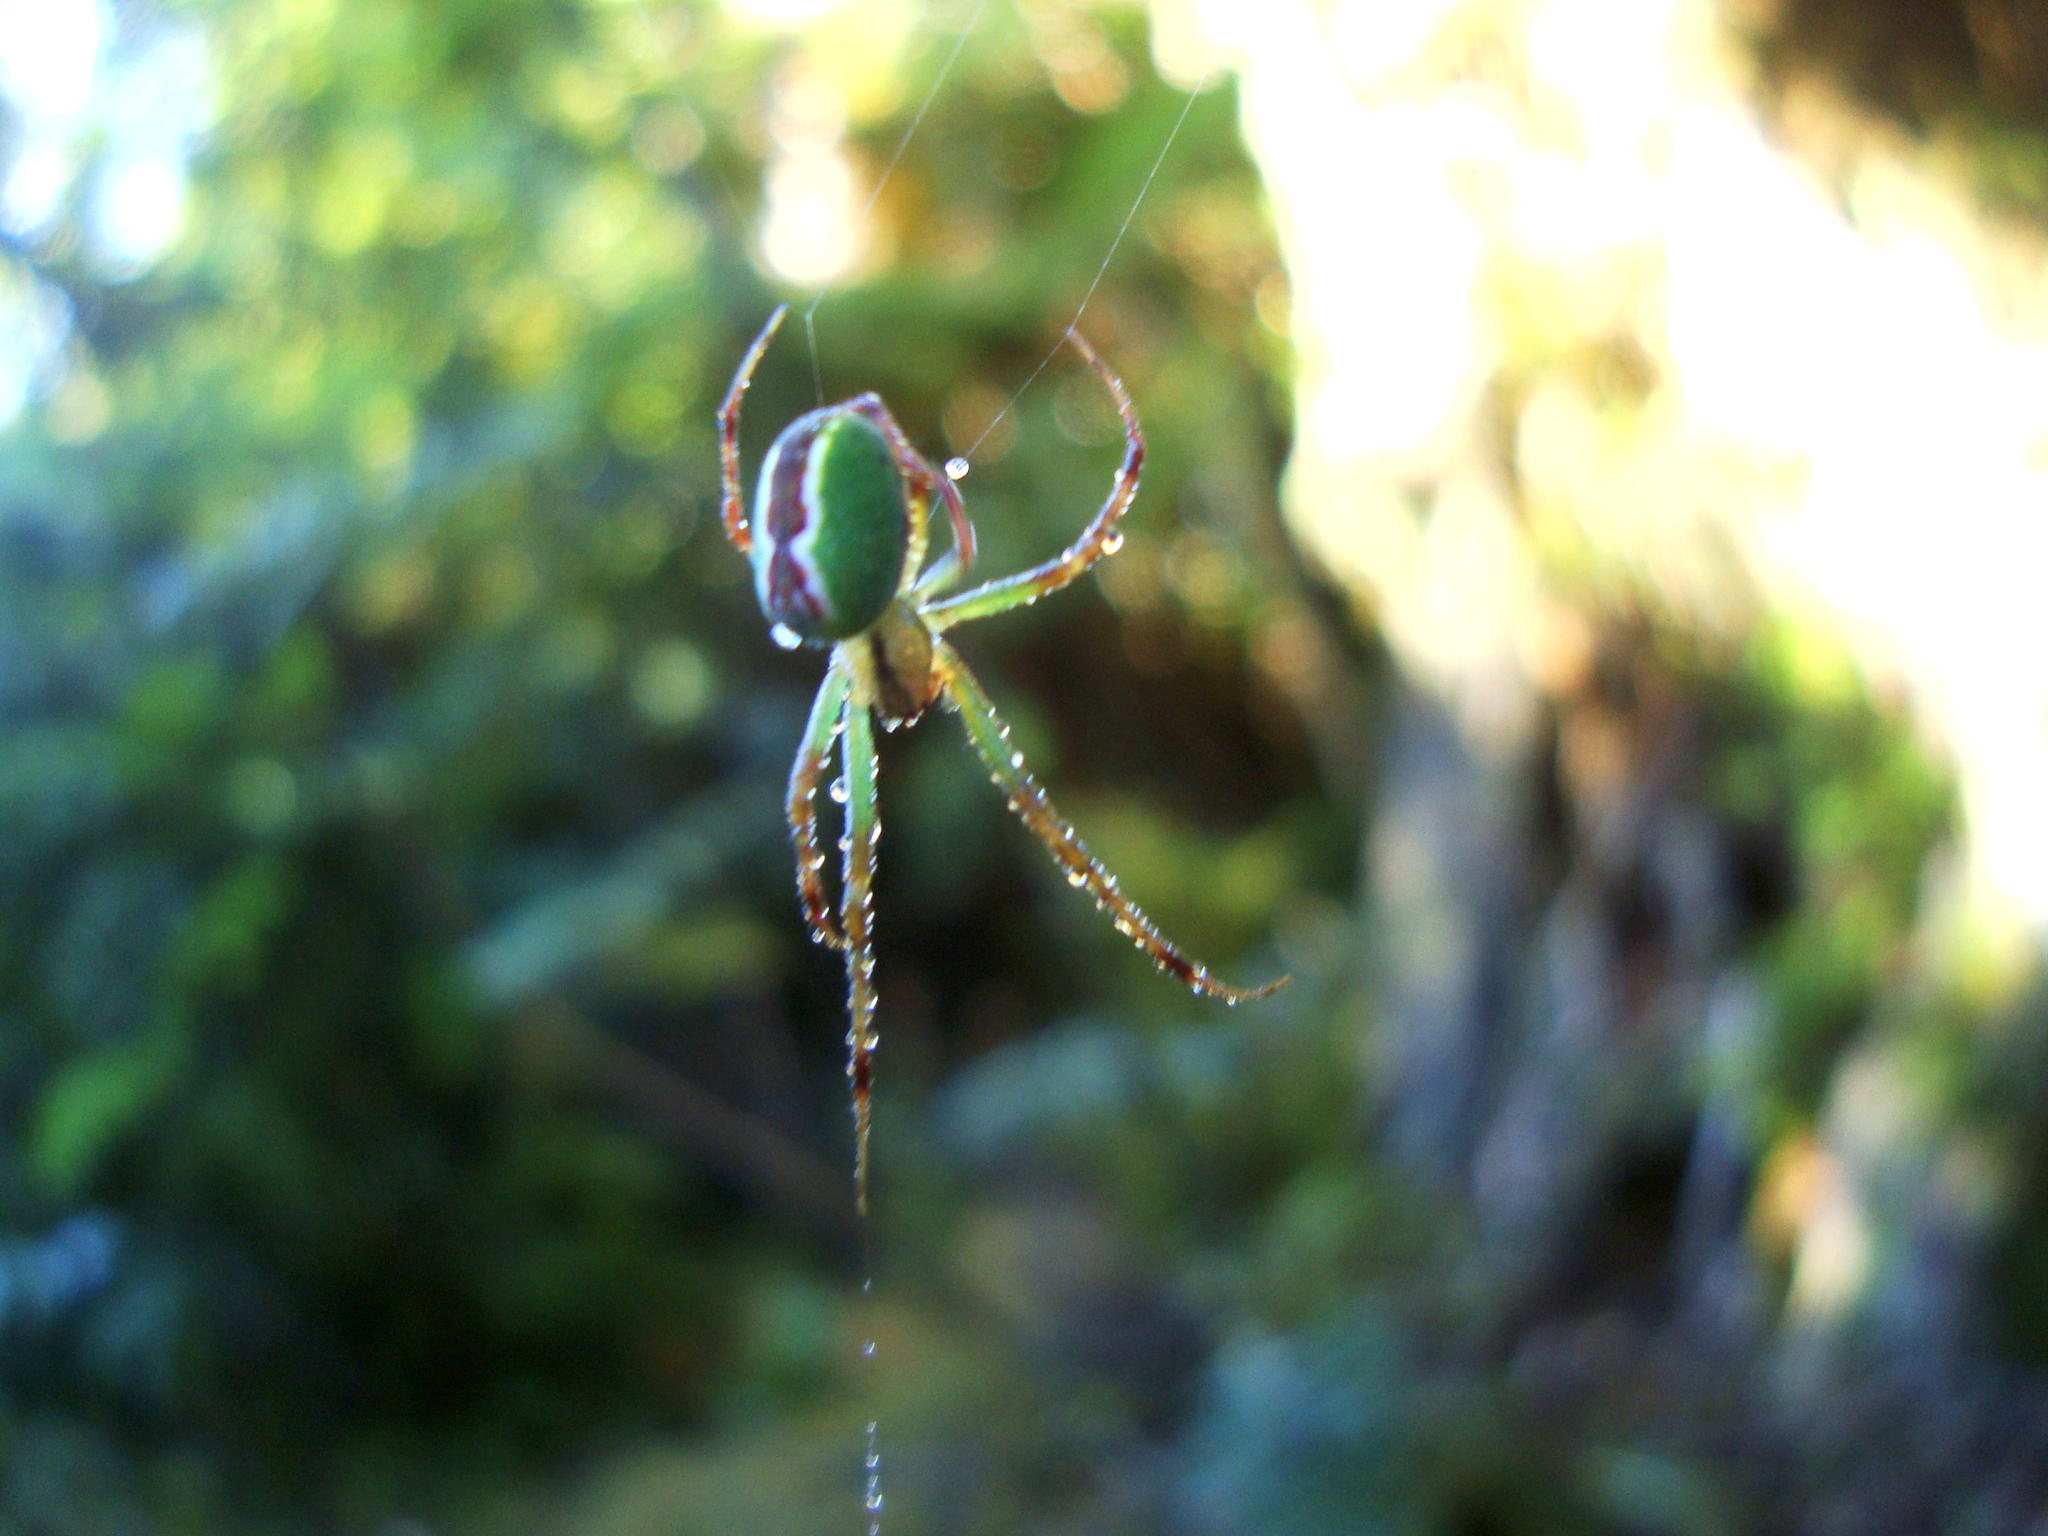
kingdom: Animalia
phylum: Arthropoda
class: Arachnida
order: Araneae
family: Tetragnathidae
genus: Allende
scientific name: Allende
